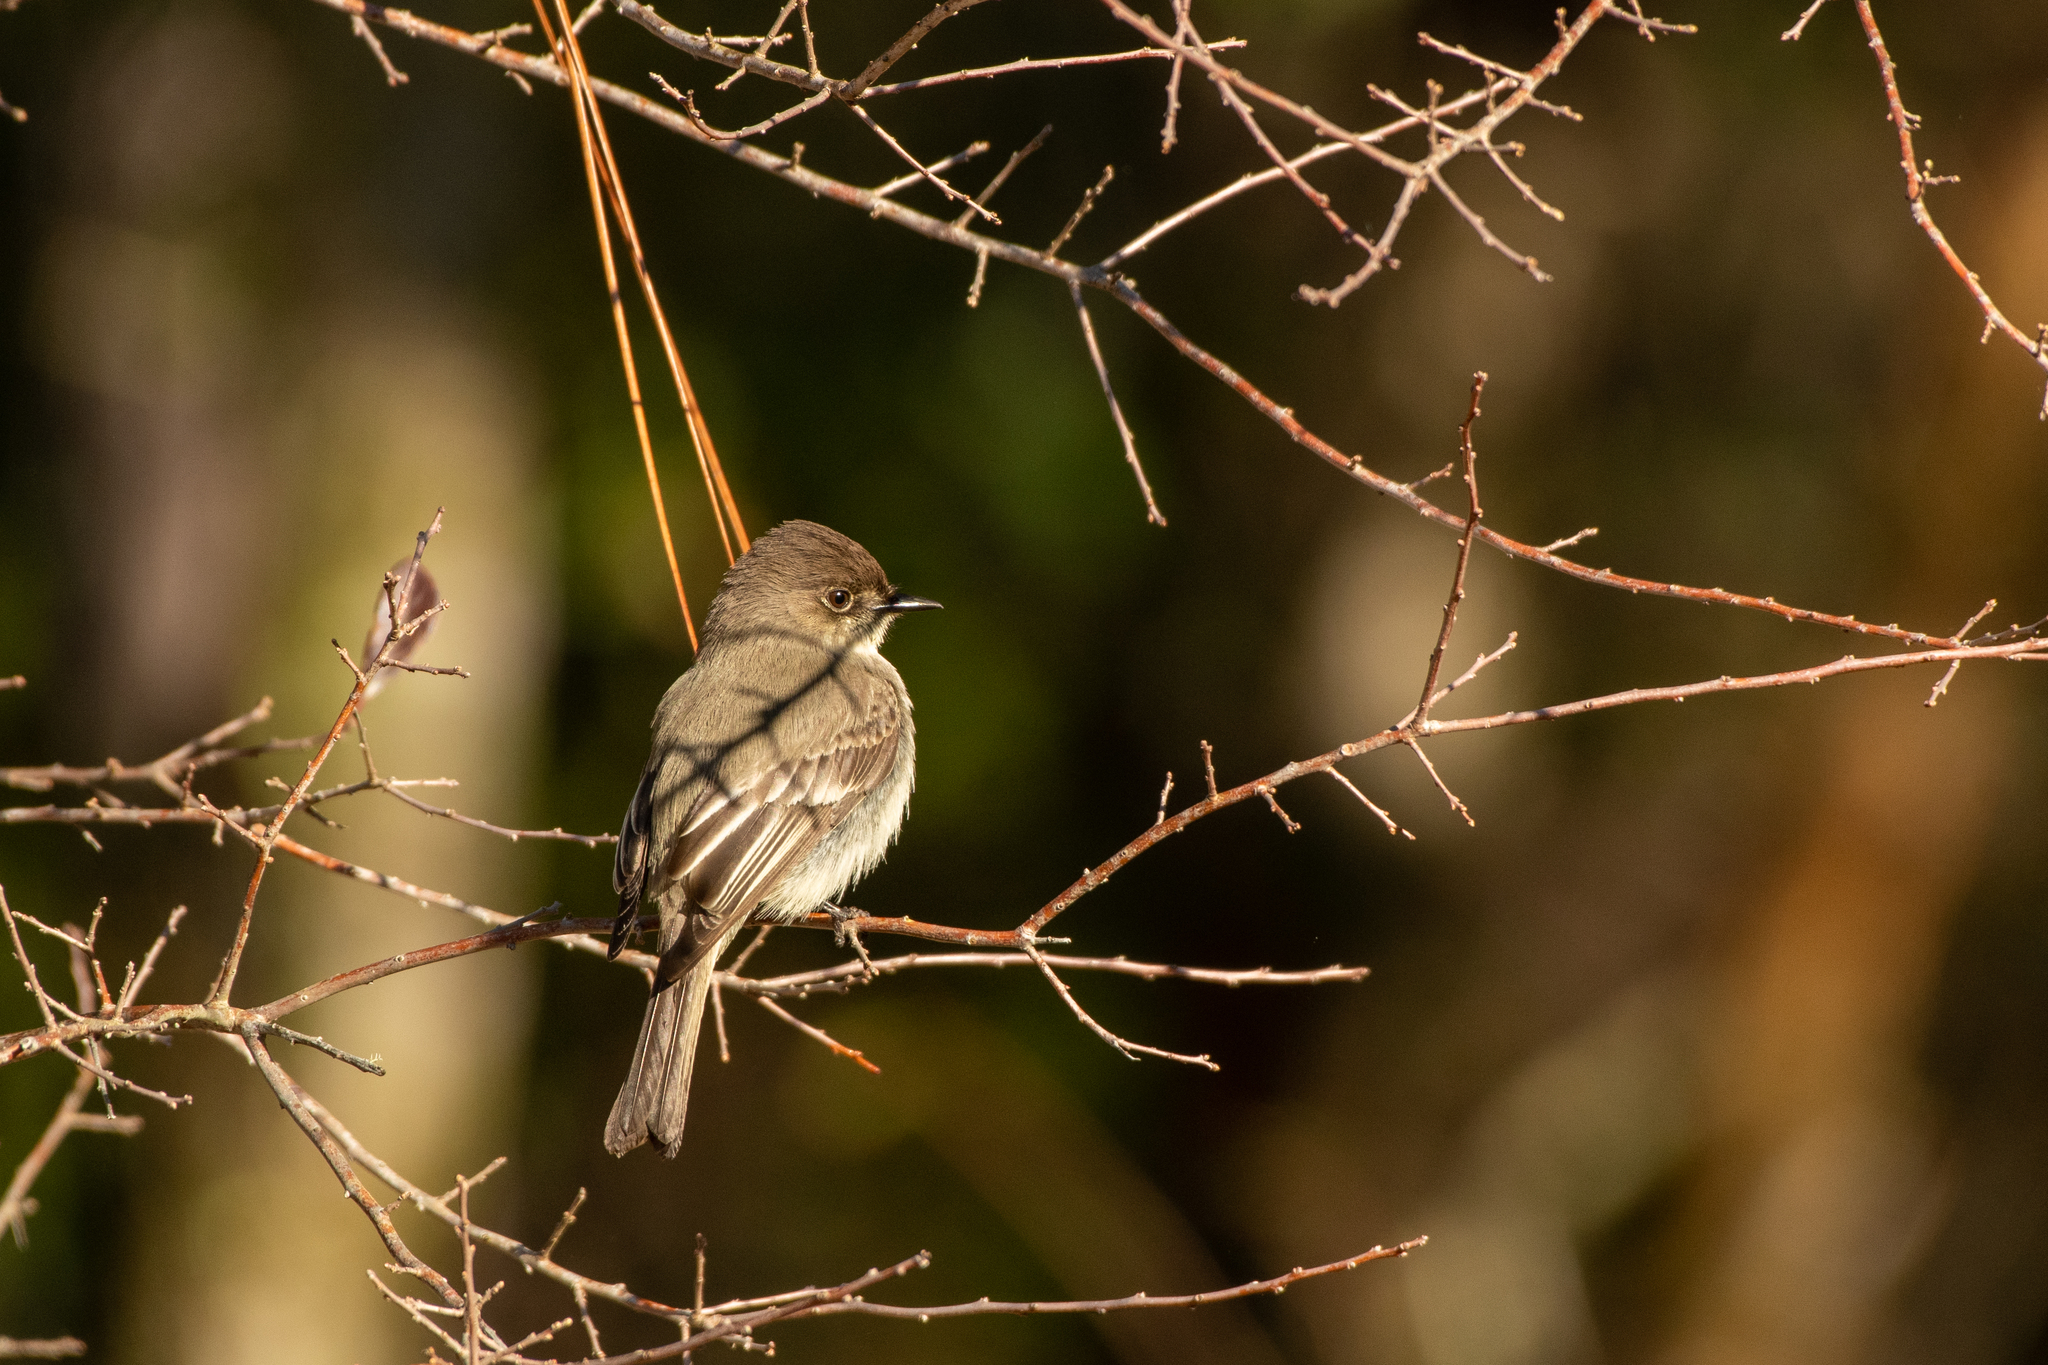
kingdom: Animalia
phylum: Chordata
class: Aves
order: Passeriformes
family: Tyrannidae
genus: Sayornis
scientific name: Sayornis phoebe
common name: Eastern phoebe
